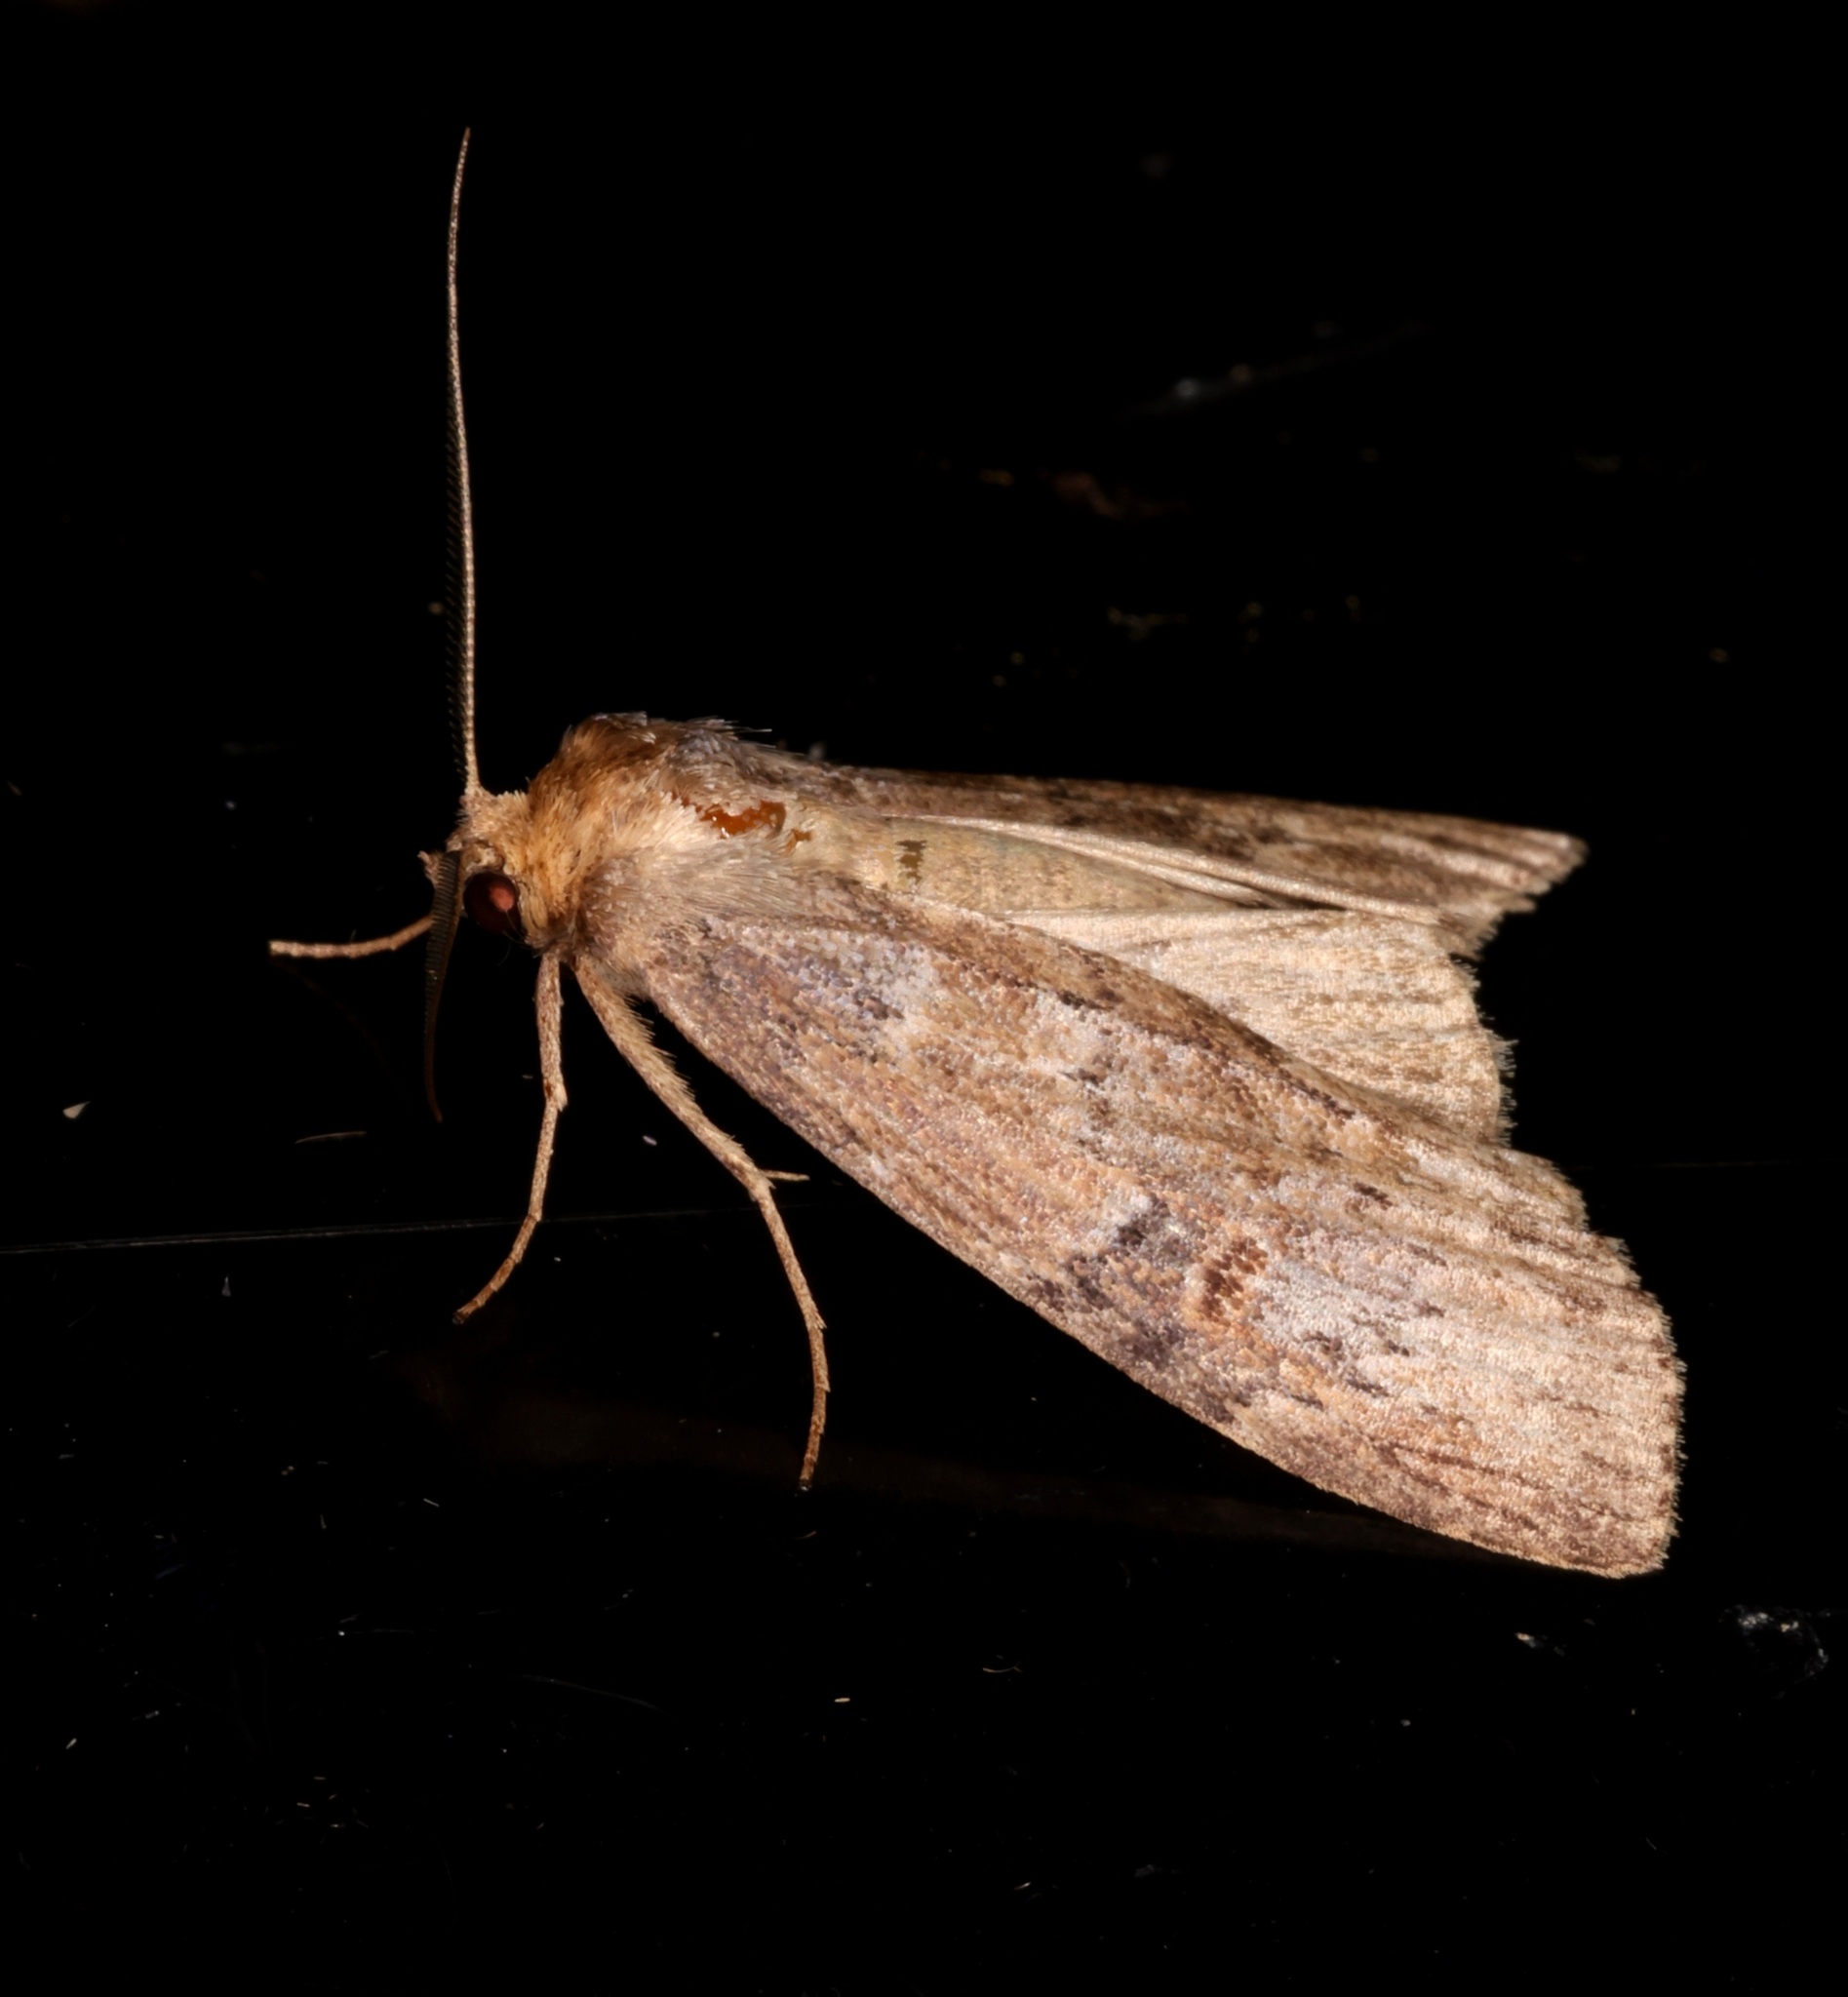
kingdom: Animalia
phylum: Arthropoda
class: Insecta
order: Lepidoptera
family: Notodontidae
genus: Porsica
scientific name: Porsica curvaria
